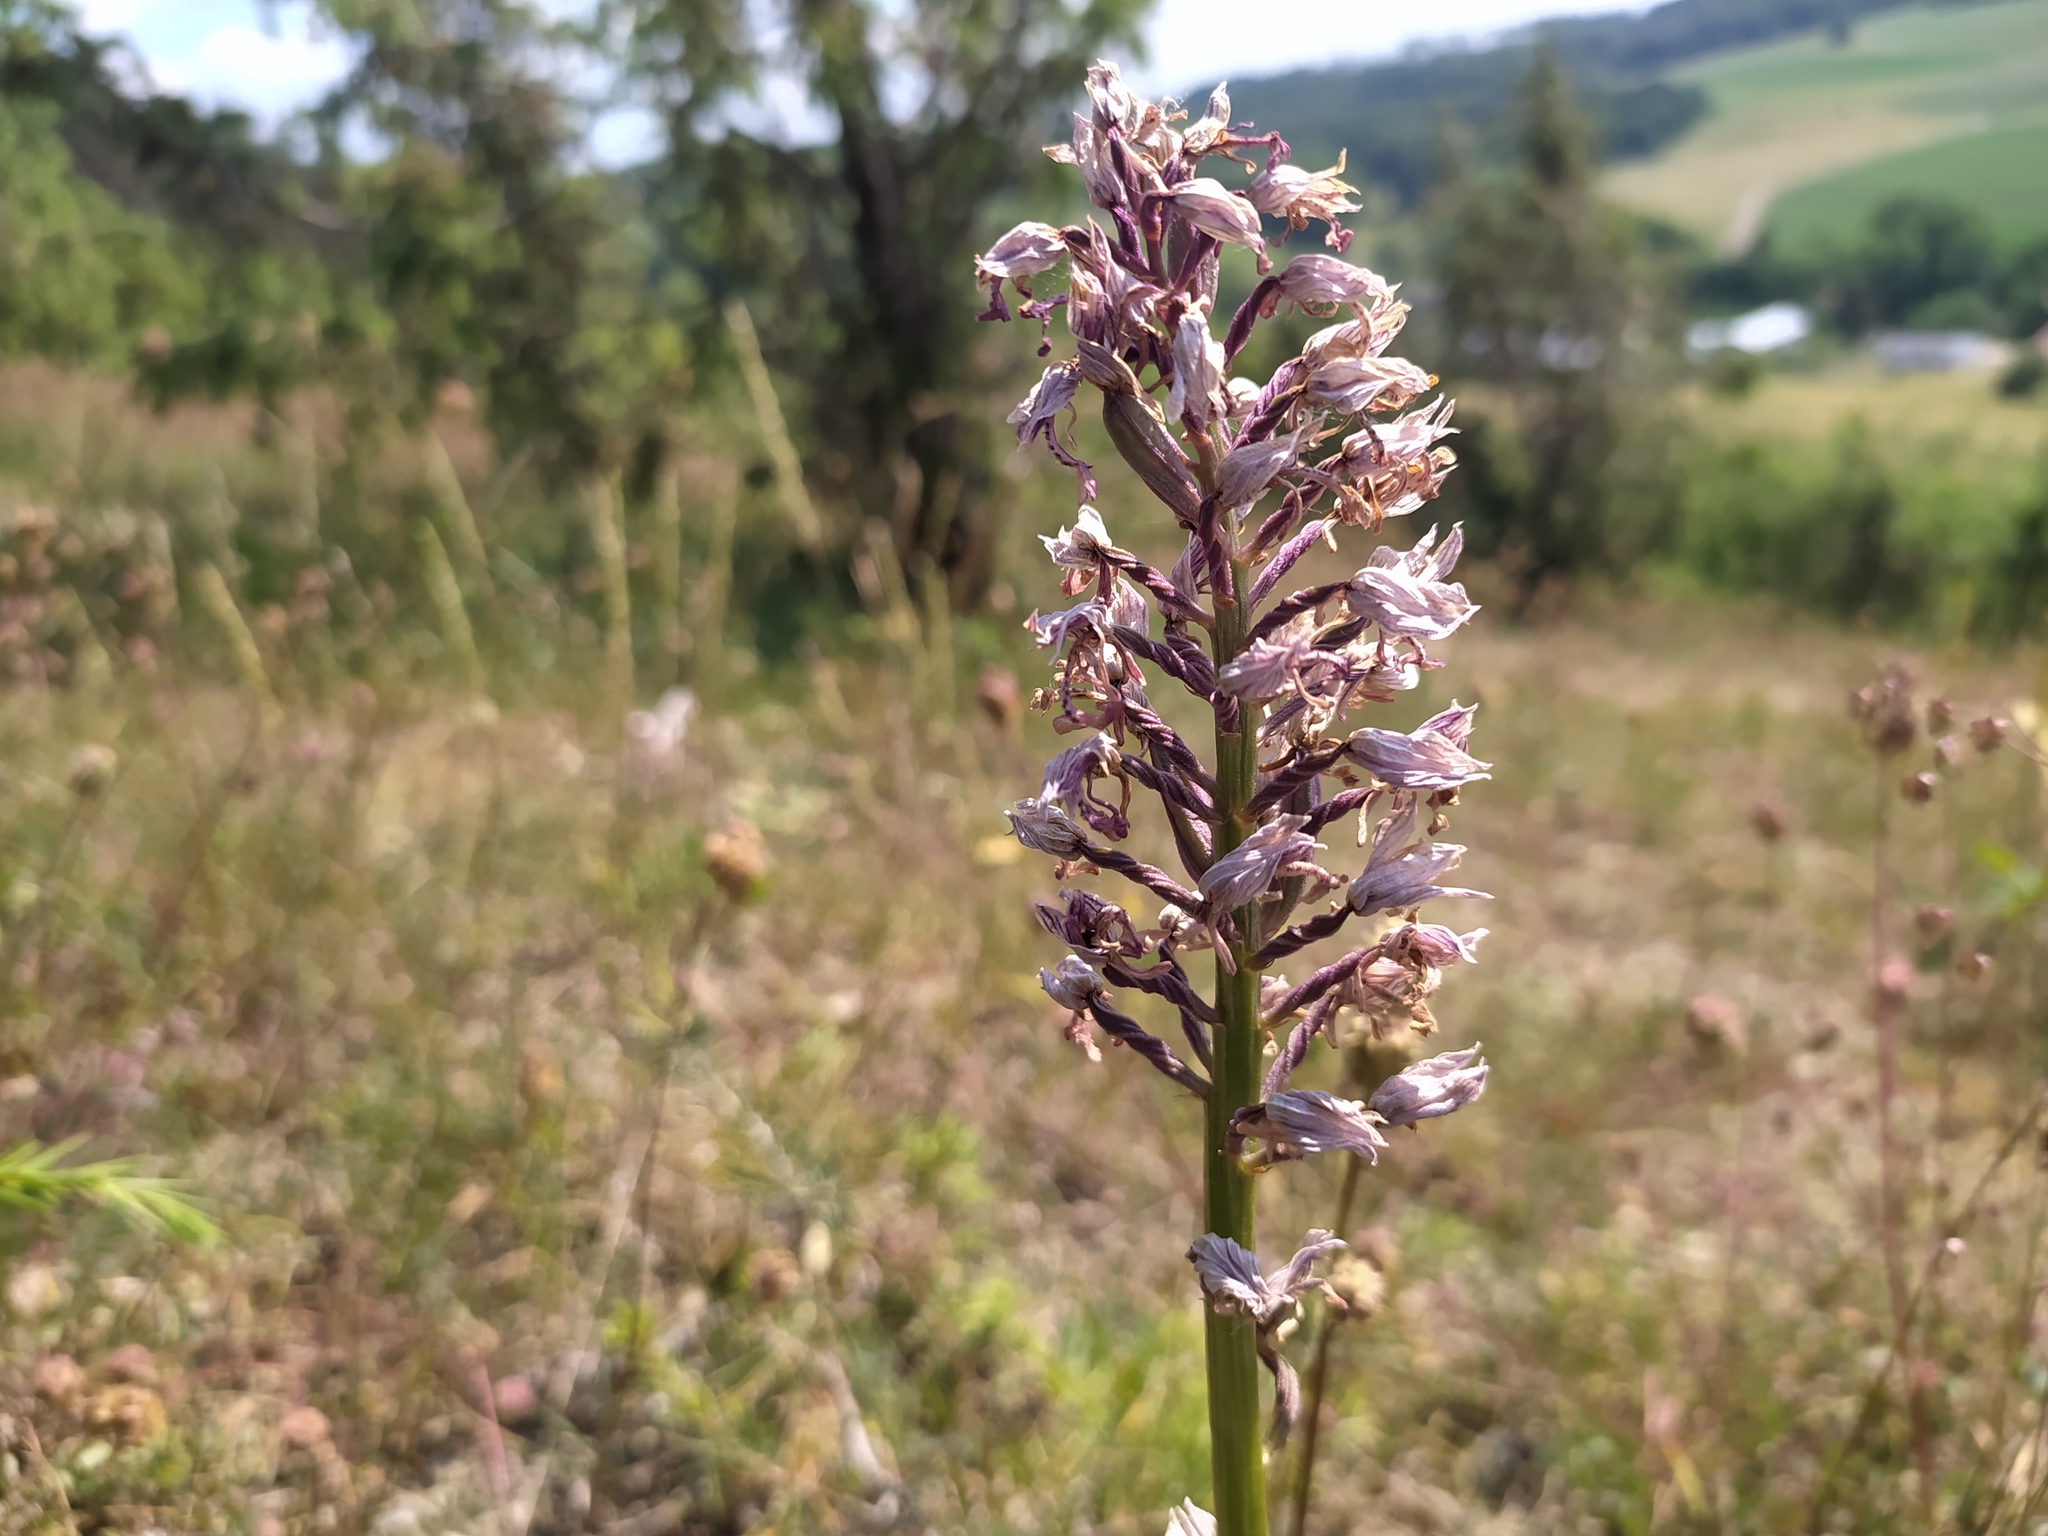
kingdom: Plantae
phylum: Tracheophyta
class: Liliopsida
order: Asparagales
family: Orchidaceae
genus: Orchis
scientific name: Orchis militaris
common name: Military orchid
